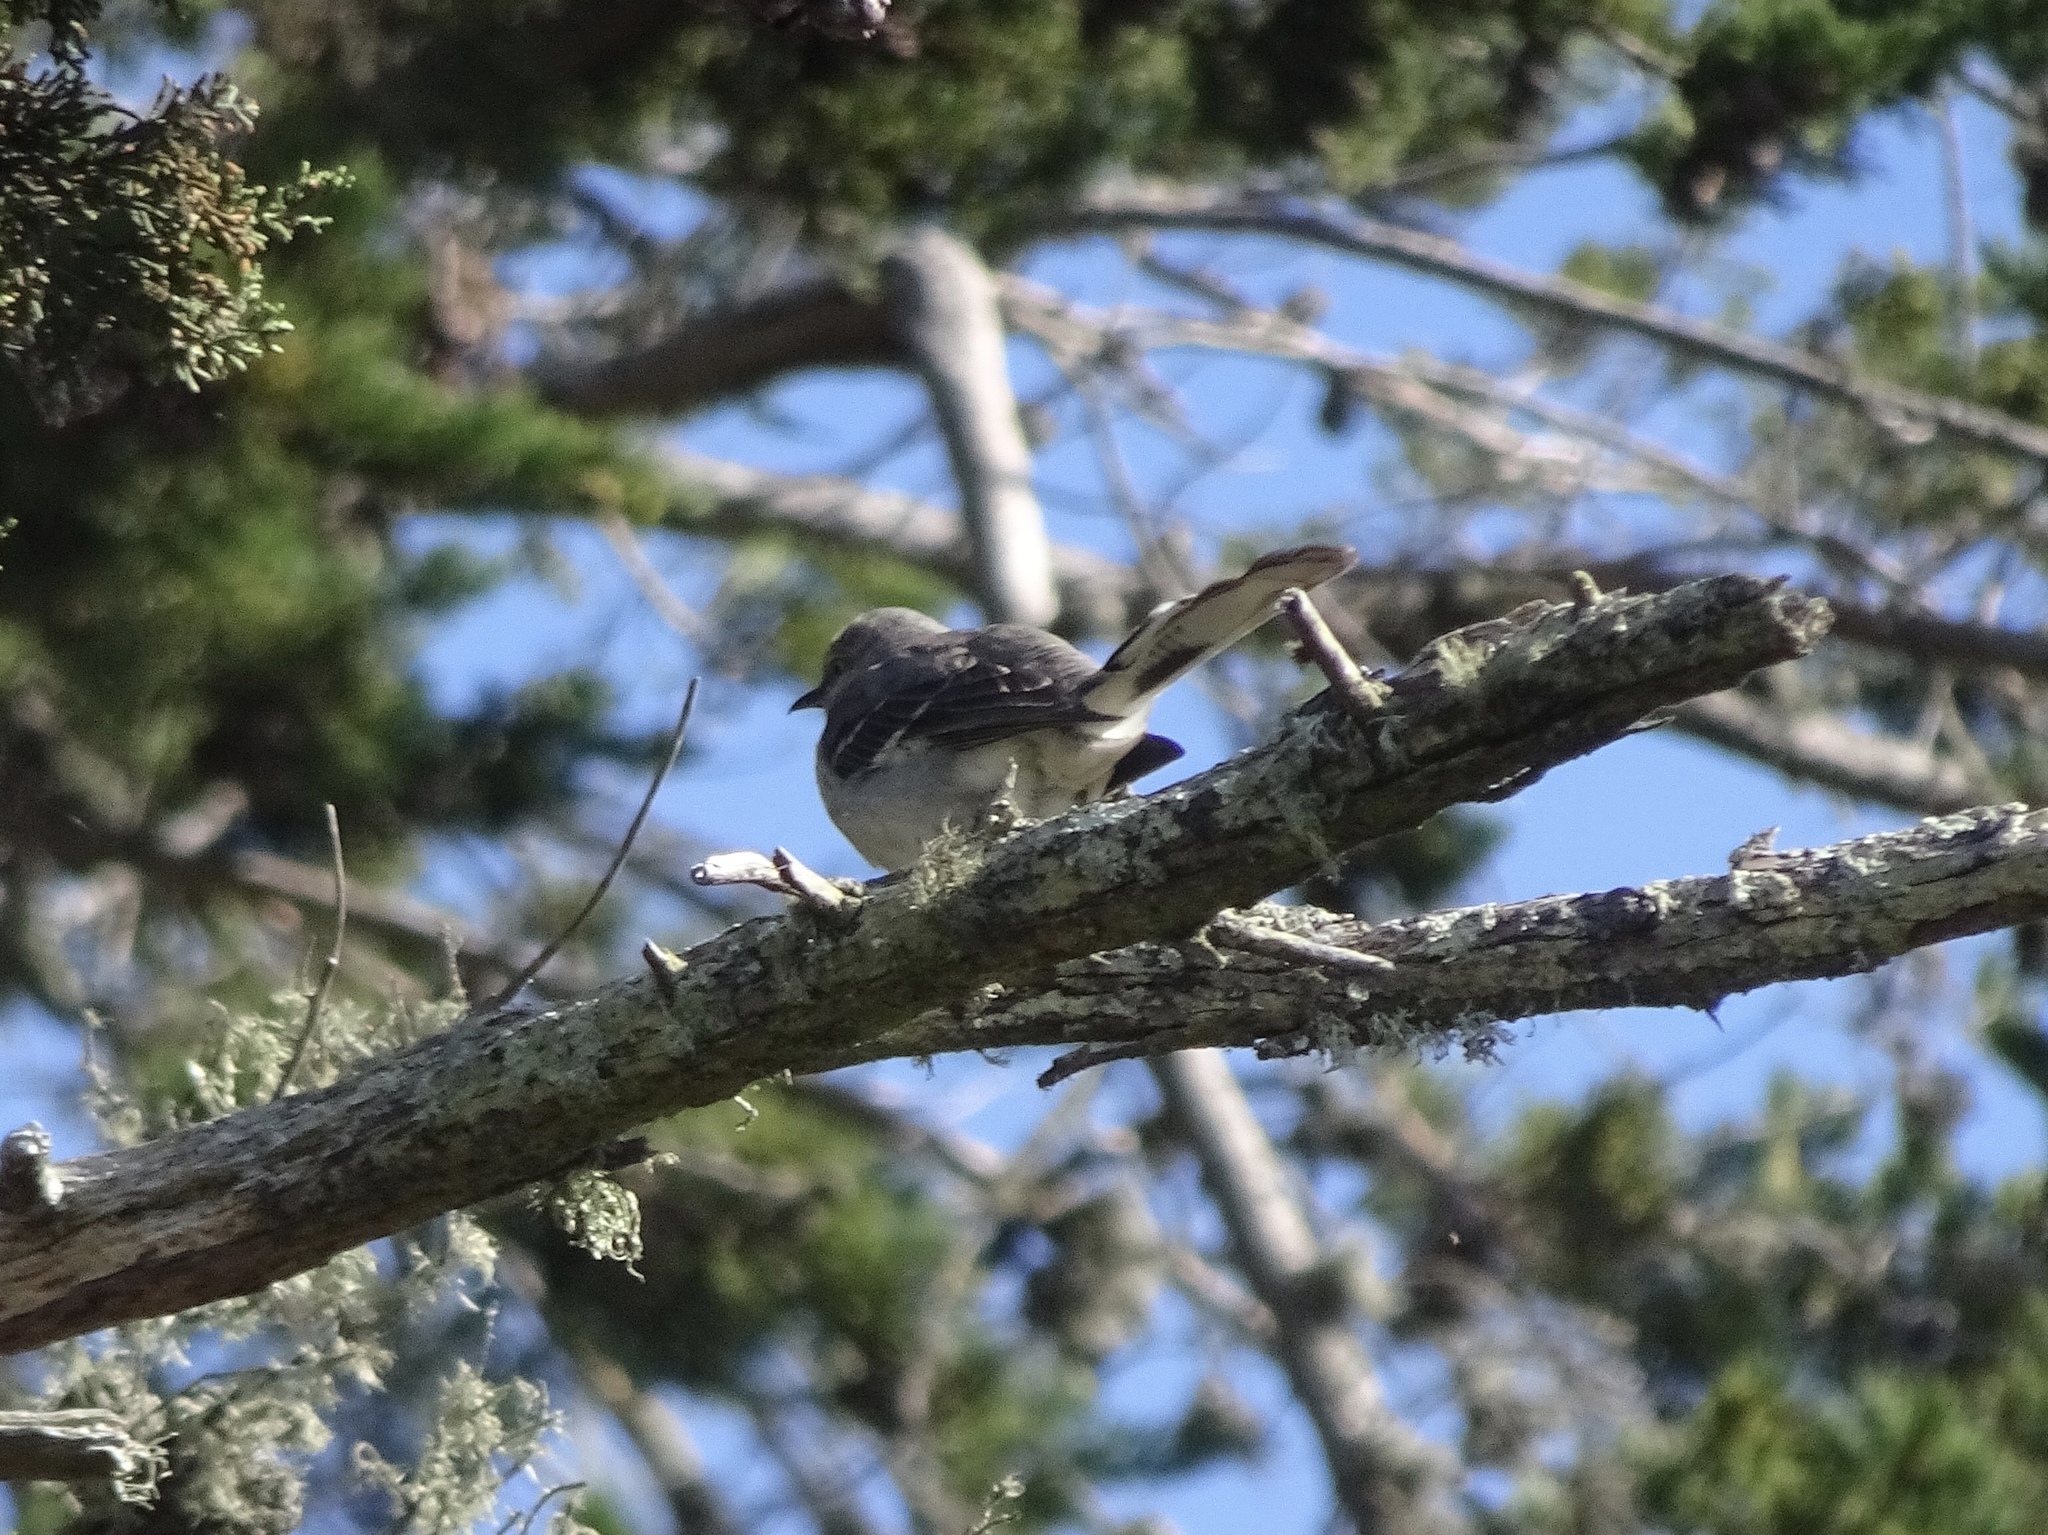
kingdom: Animalia
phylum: Chordata
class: Aves
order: Passeriformes
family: Mimidae
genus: Mimus
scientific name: Mimus polyglottos
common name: Northern mockingbird
